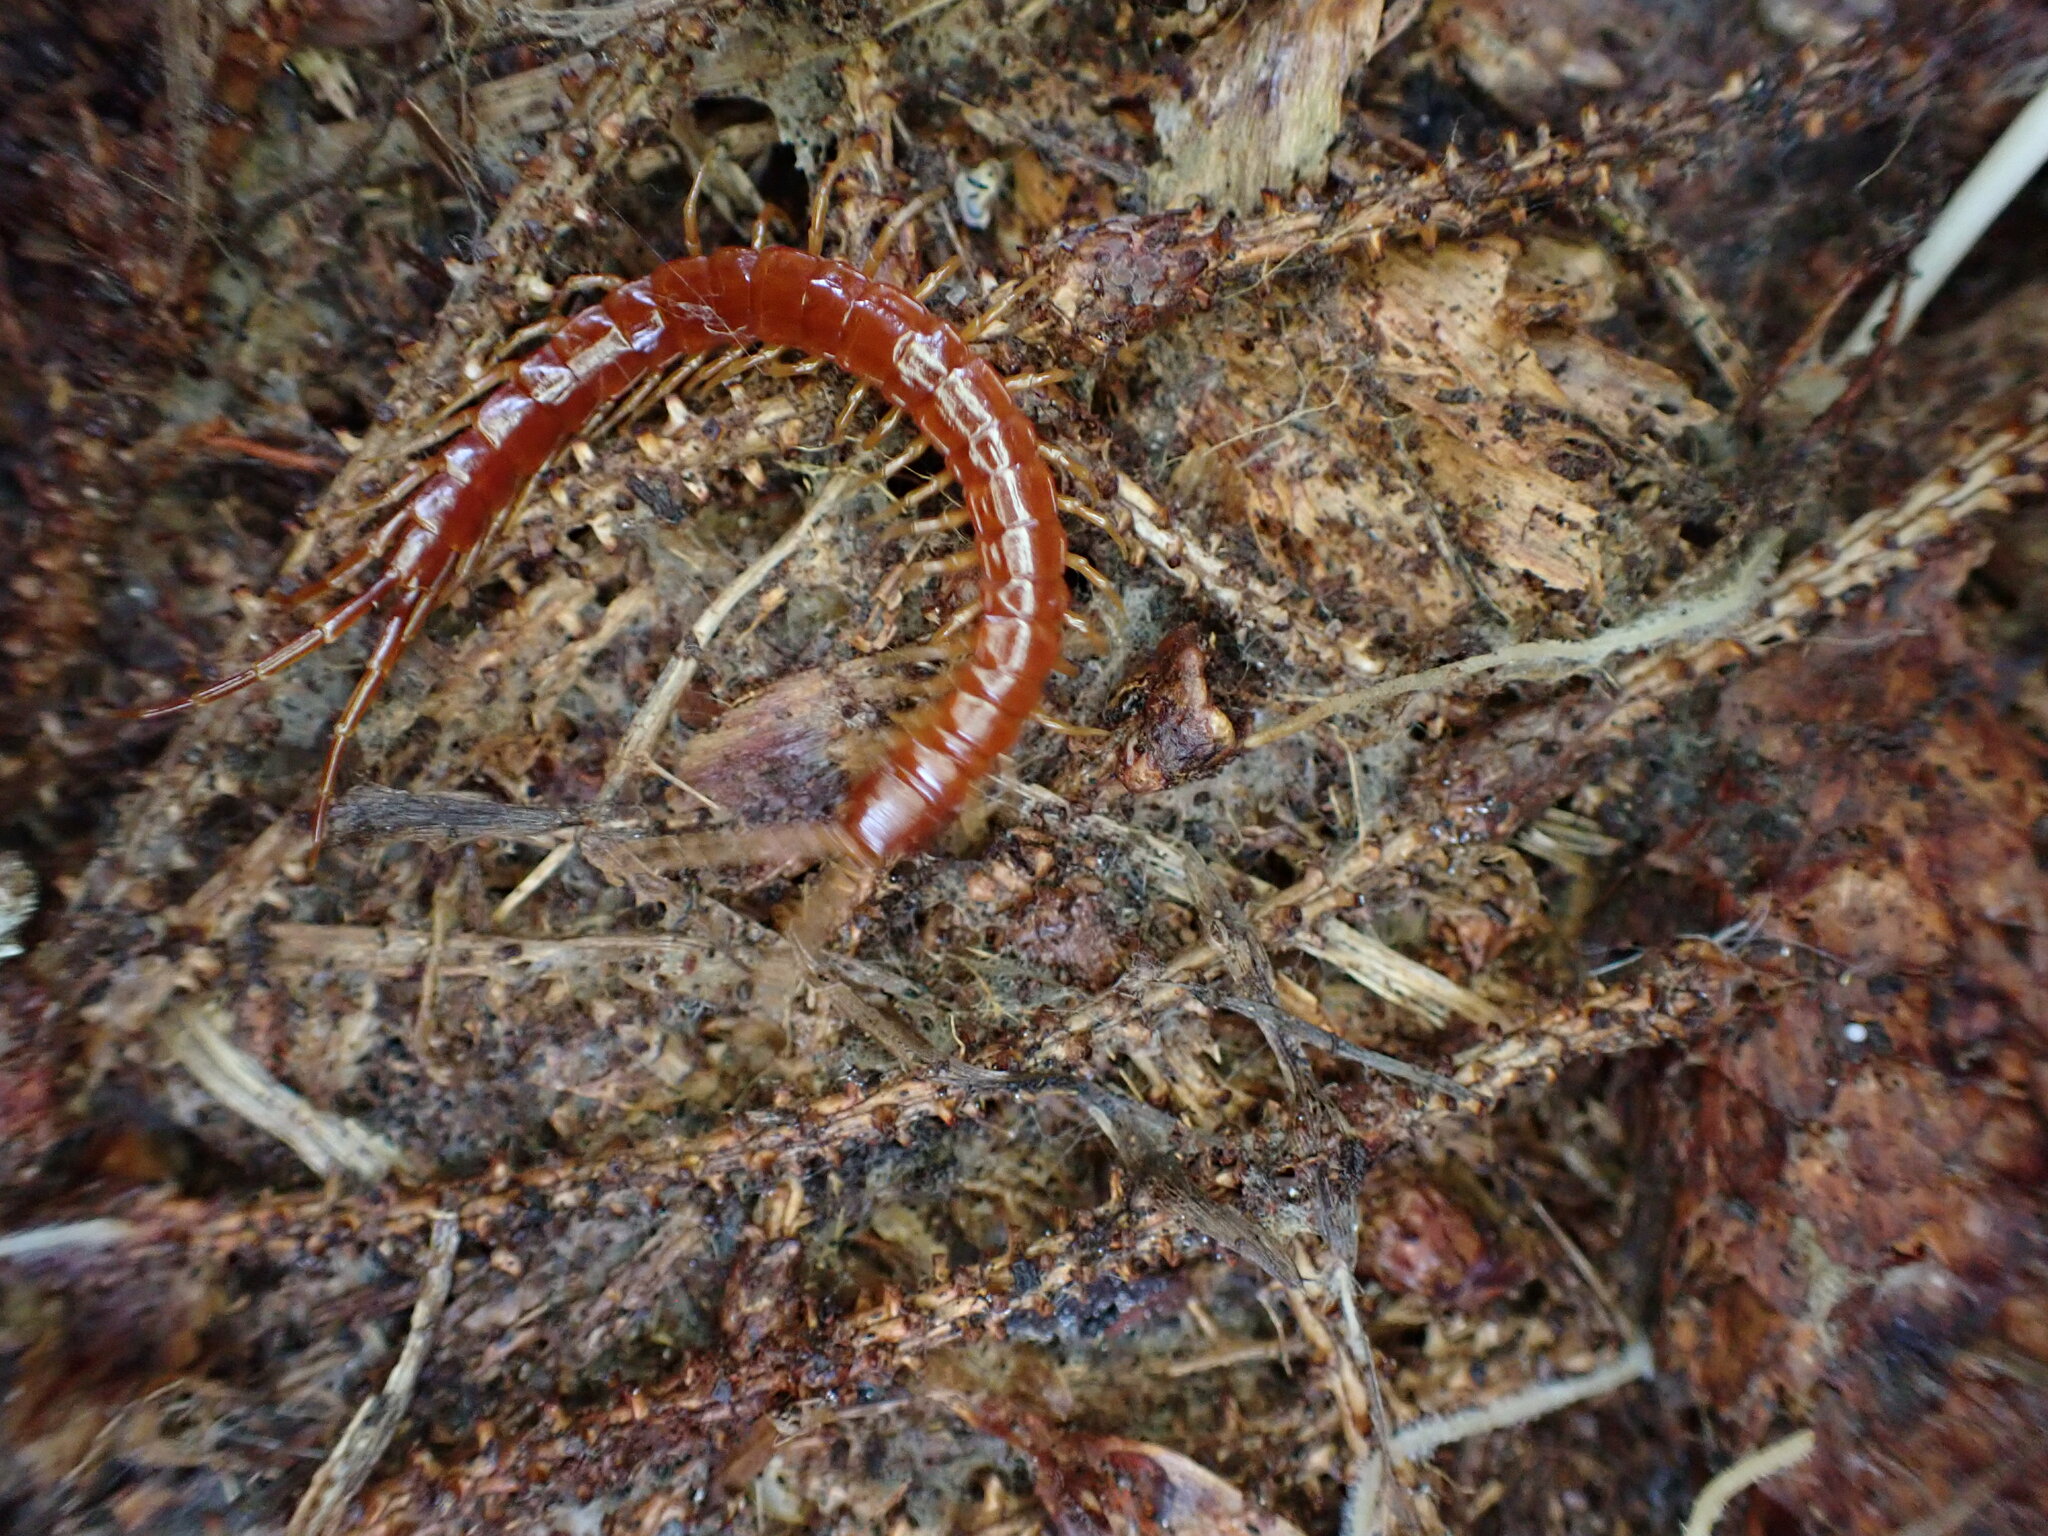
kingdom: Animalia
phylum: Arthropoda
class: Chilopoda
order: Scolopendromorpha
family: Scolopocryptopidae
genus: Scolopocryptops
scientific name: Scolopocryptops spinicaudus
